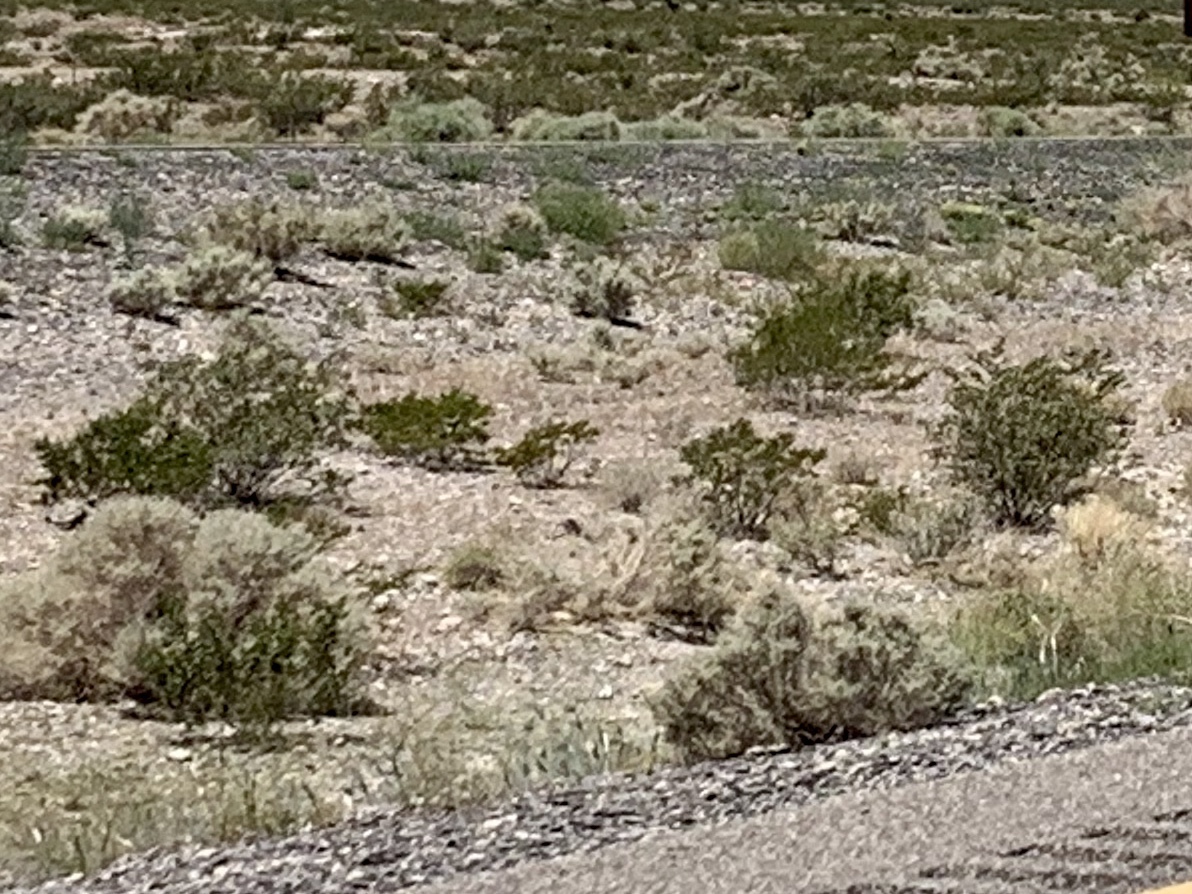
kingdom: Plantae
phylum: Tracheophyta
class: Magnoliopsida
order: Zygophyllales
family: Zygophyllaceae
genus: Larrea
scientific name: Larrea tridentata
